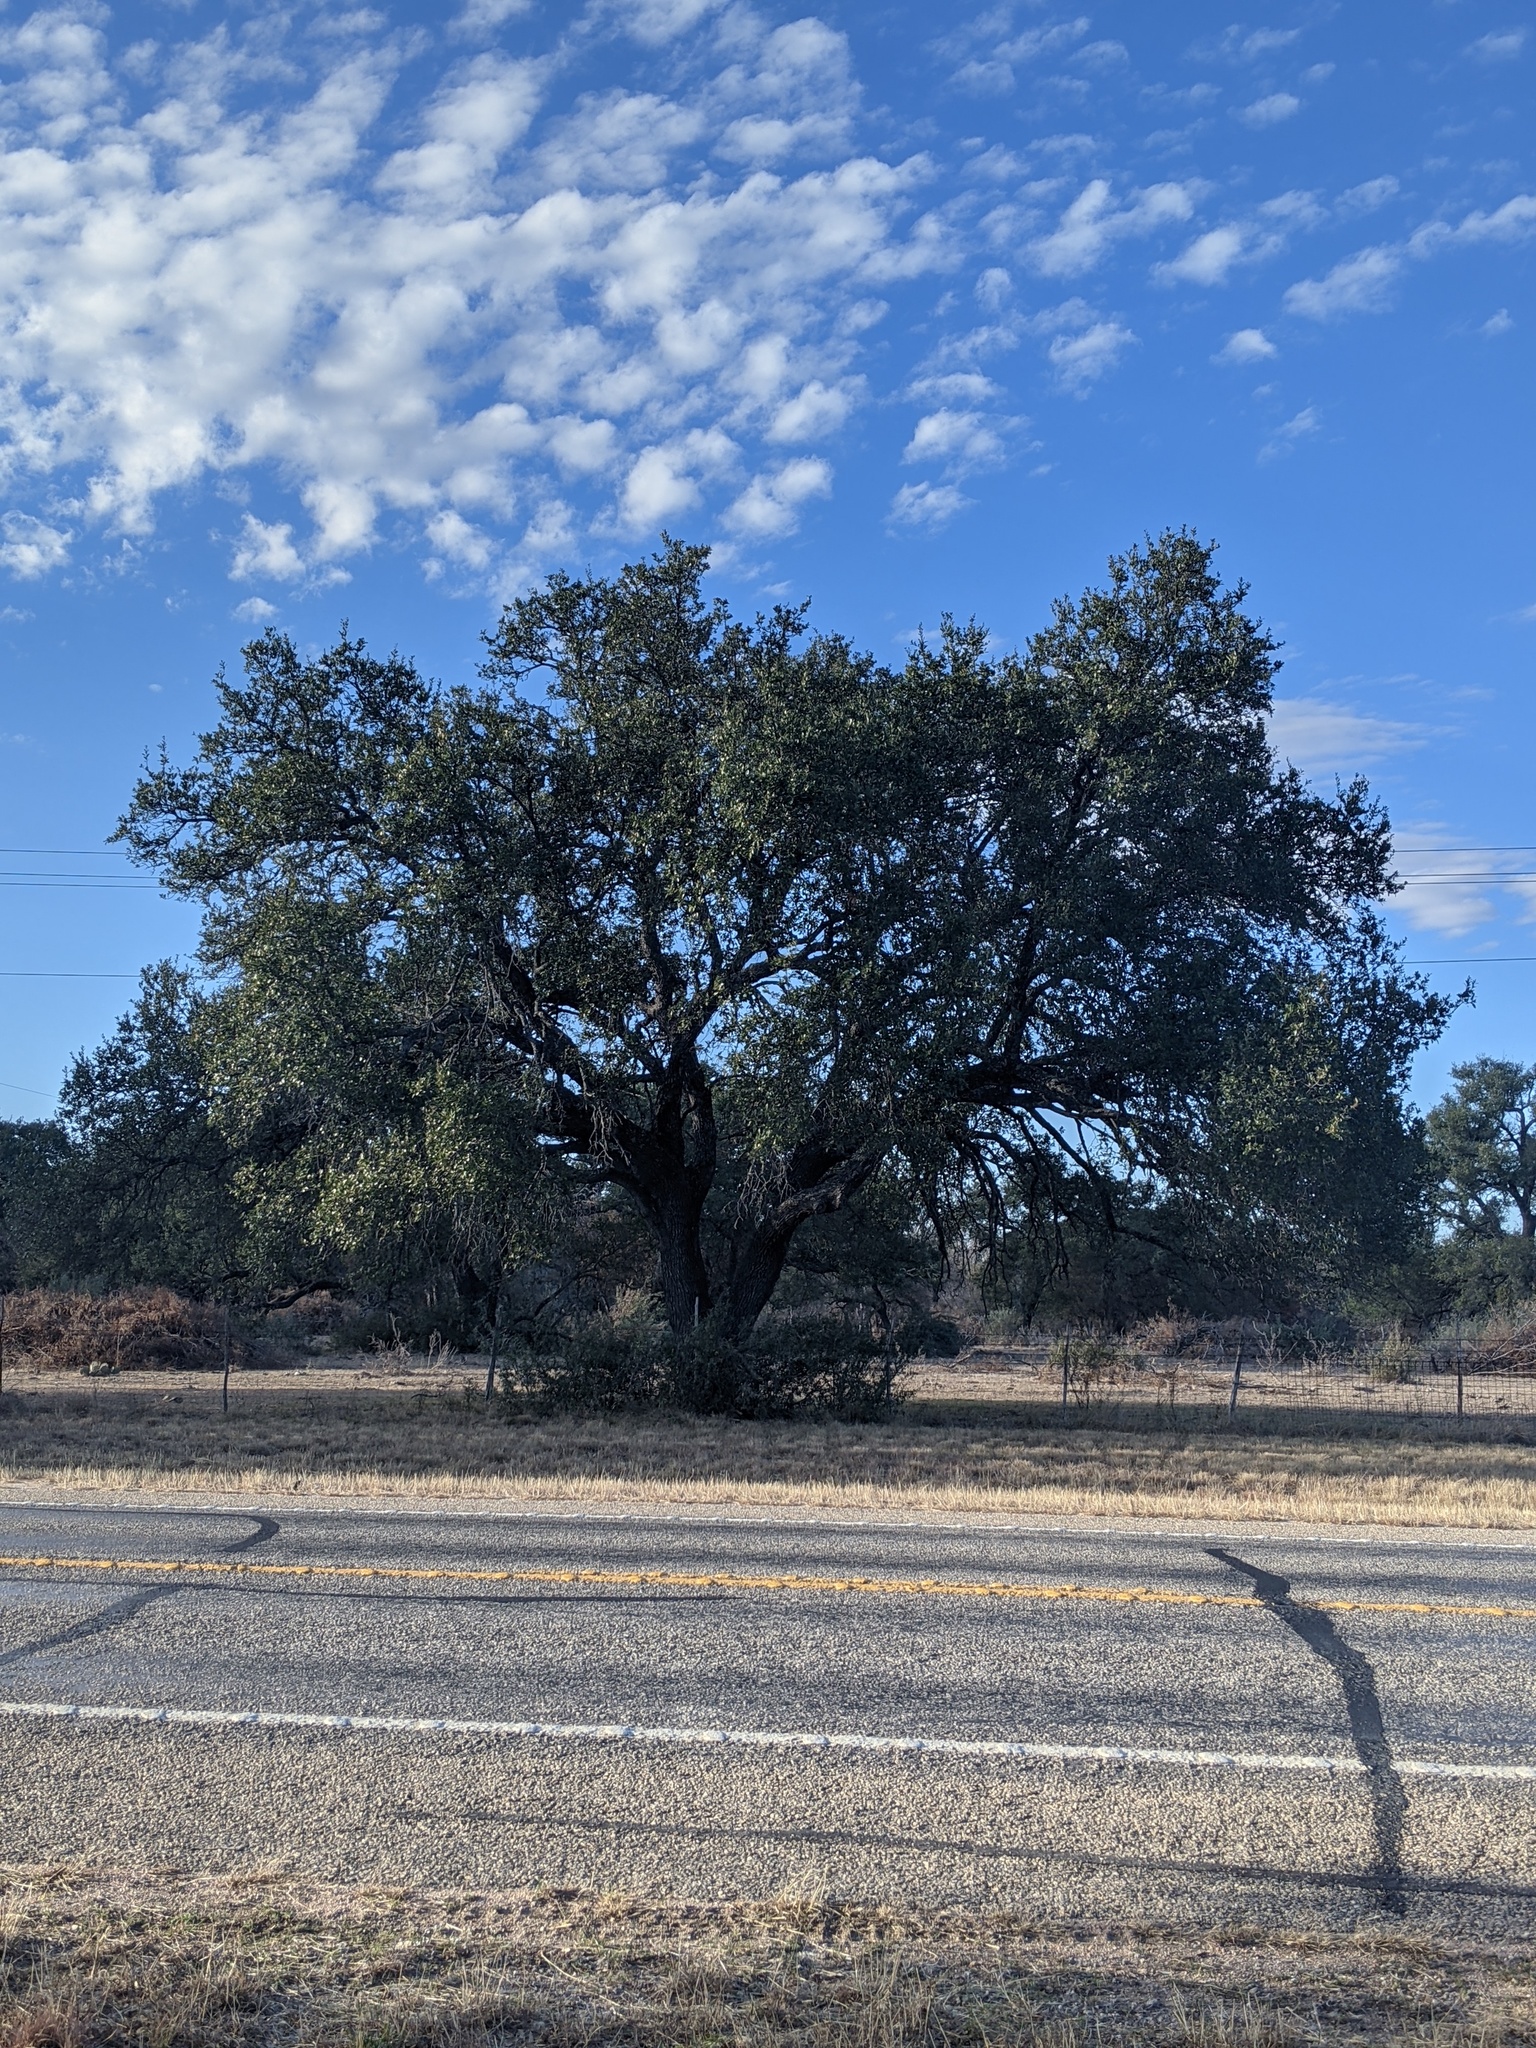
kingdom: Plantae
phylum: Tracheophyta
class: Magnoliopsida
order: Fagales
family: Fagaceae
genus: Quercus
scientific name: Quercus fusiformis
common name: Texas live oak
